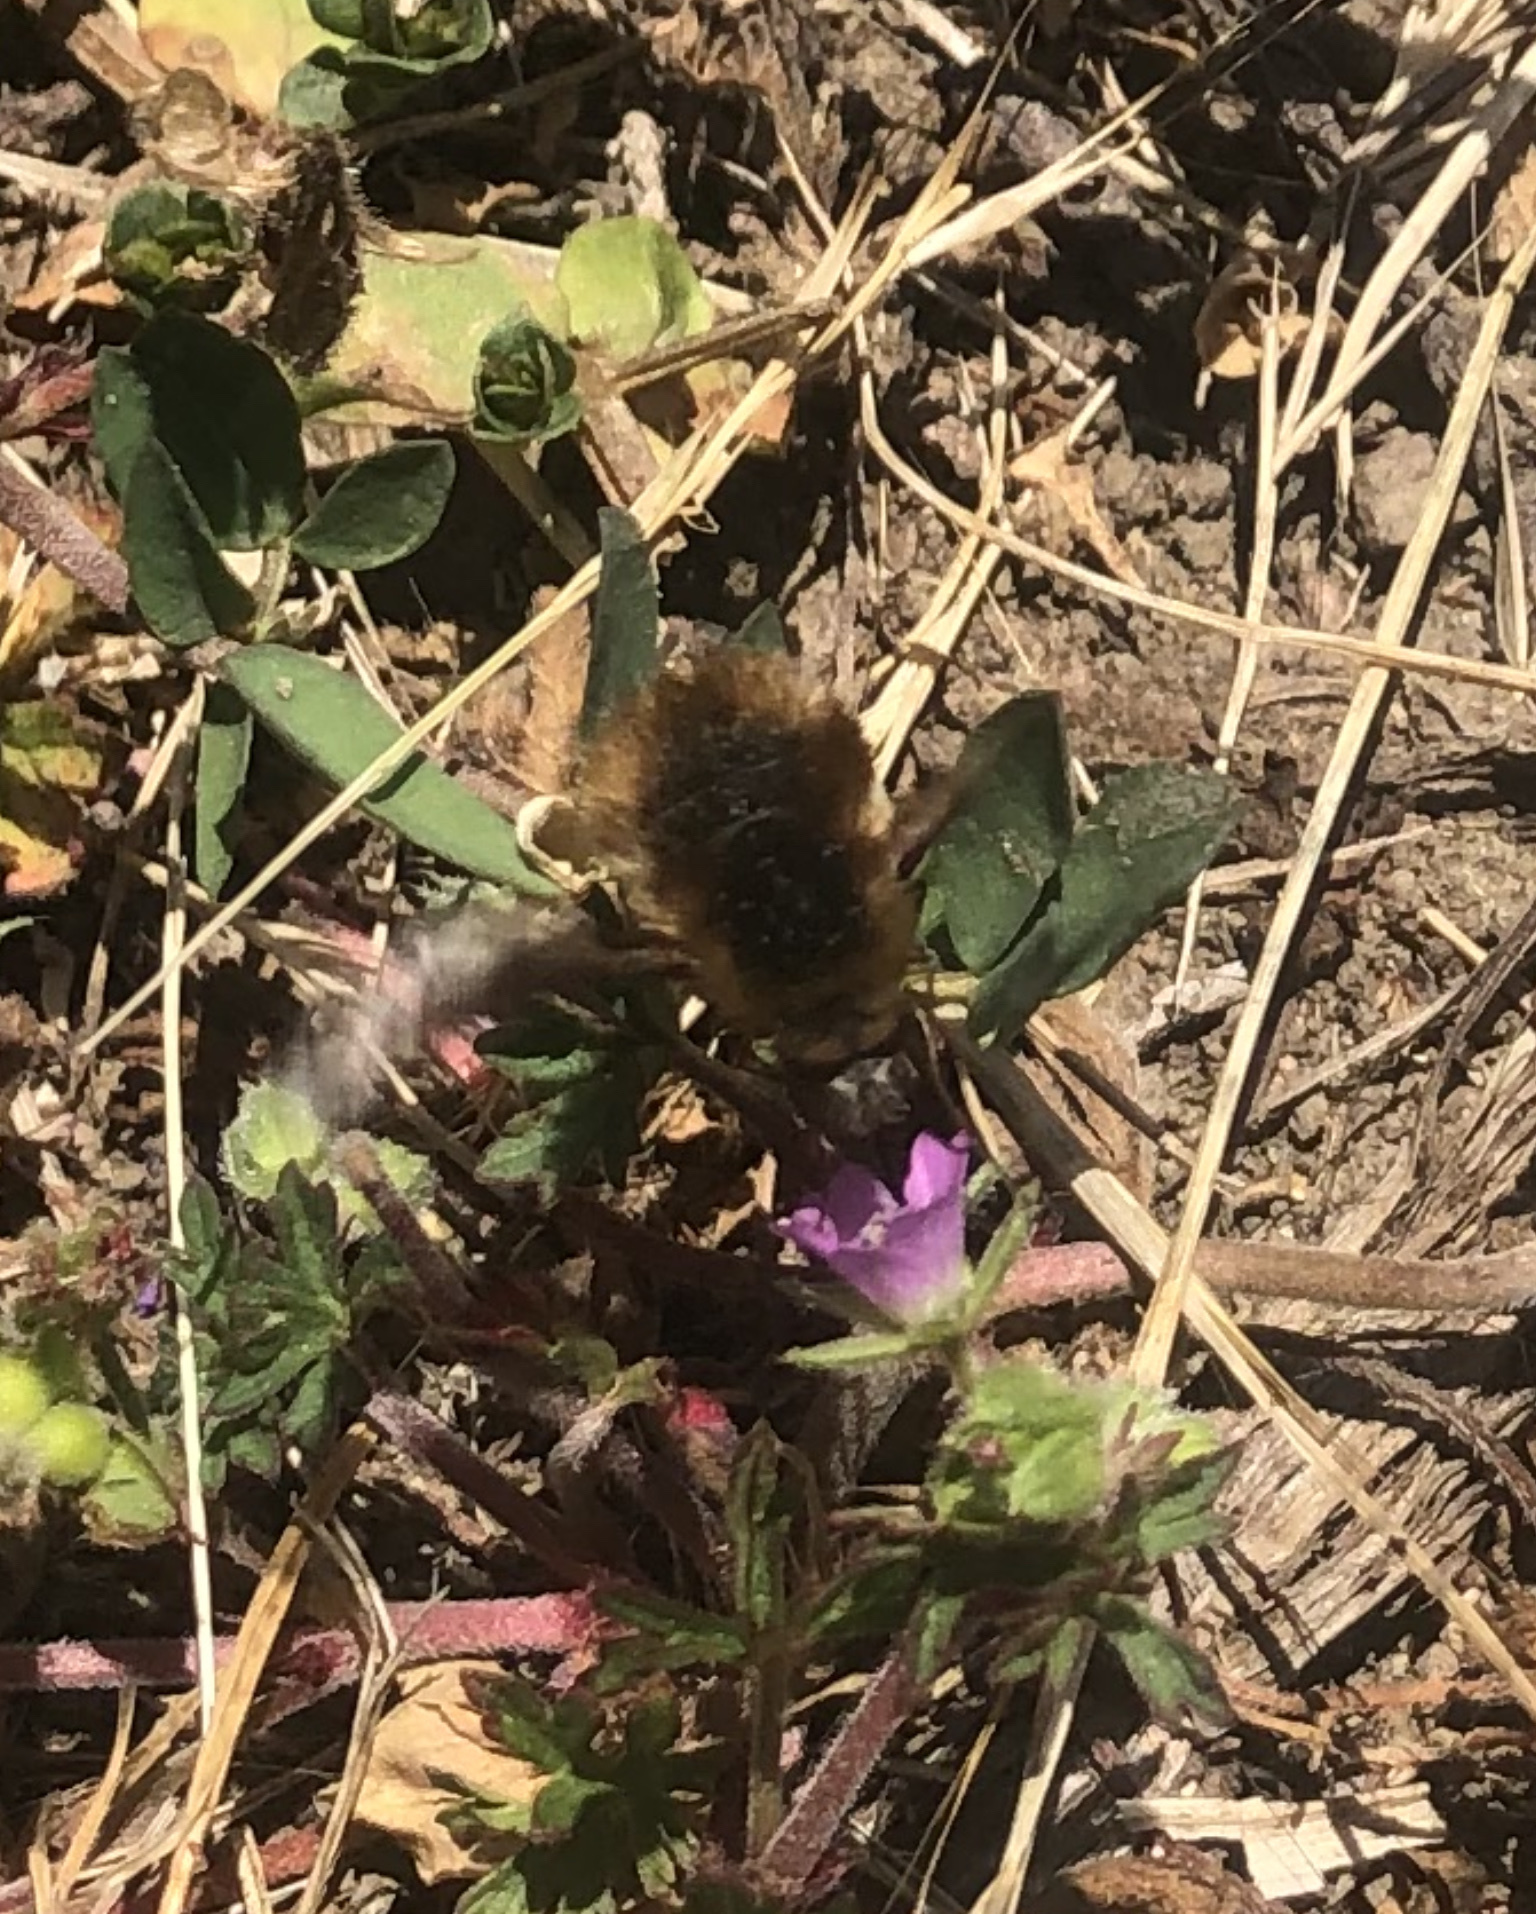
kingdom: Animalia
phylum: Arthropoda
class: Insecta
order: Diptera
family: Bombyliidae
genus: Bombylius
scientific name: Bombylius major
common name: Bee fly
